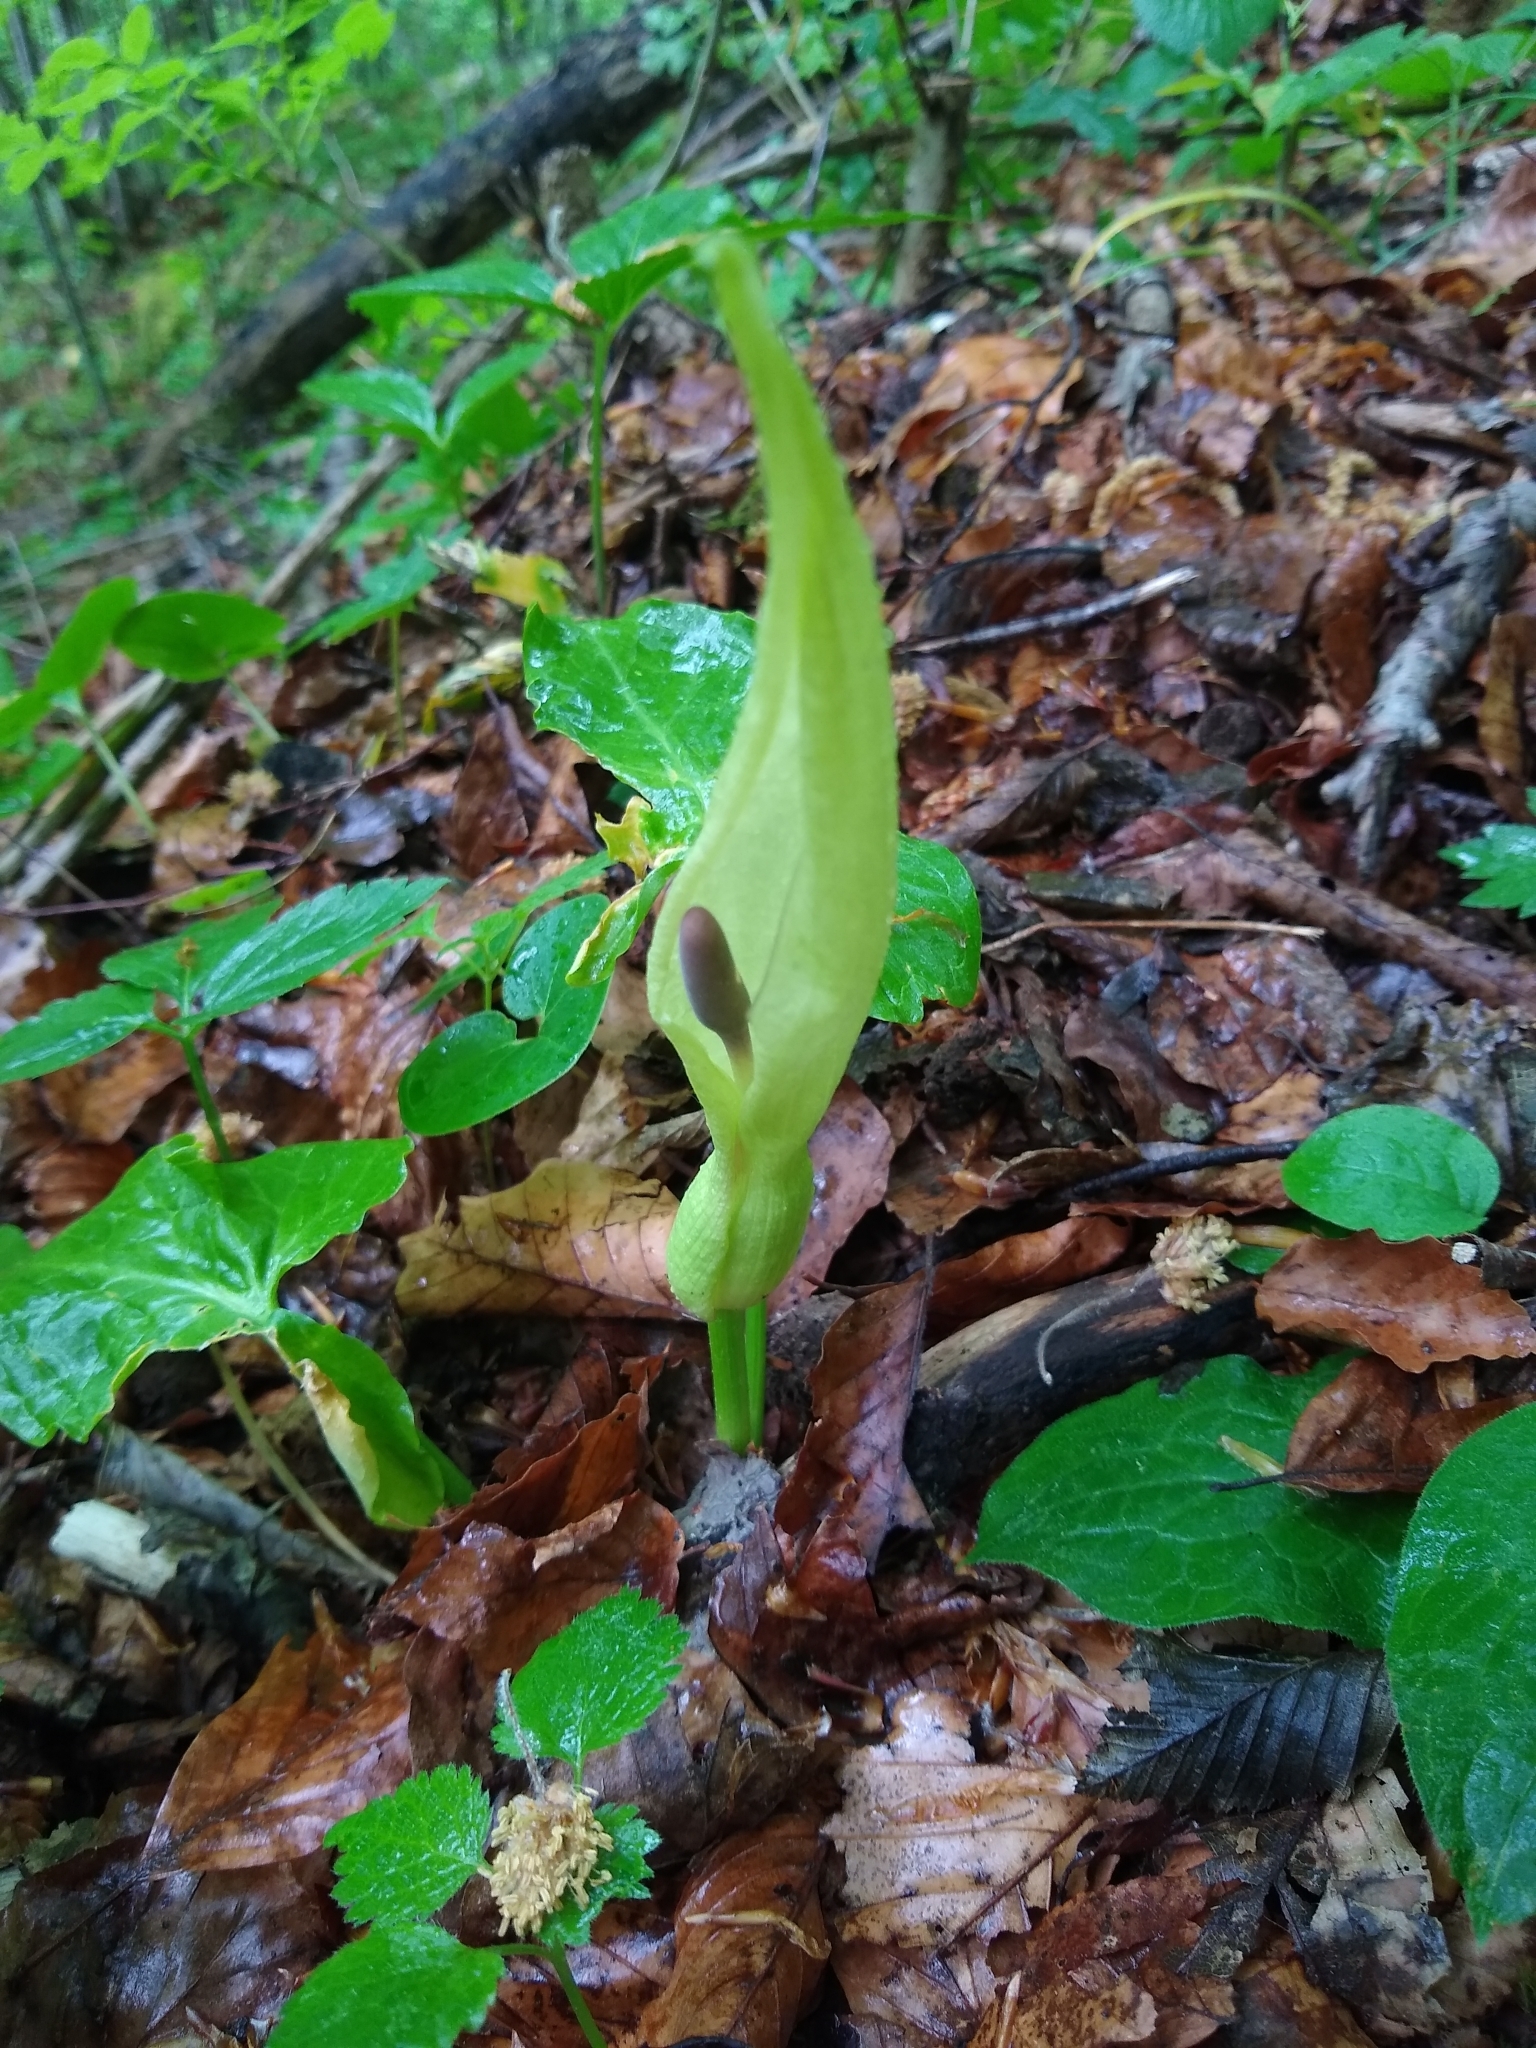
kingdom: Plantae
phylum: Tracheophyta
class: Liliopsida
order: Alismatales
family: Araceae
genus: Arum
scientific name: Arum maculatum
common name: Lords-and-ladies
